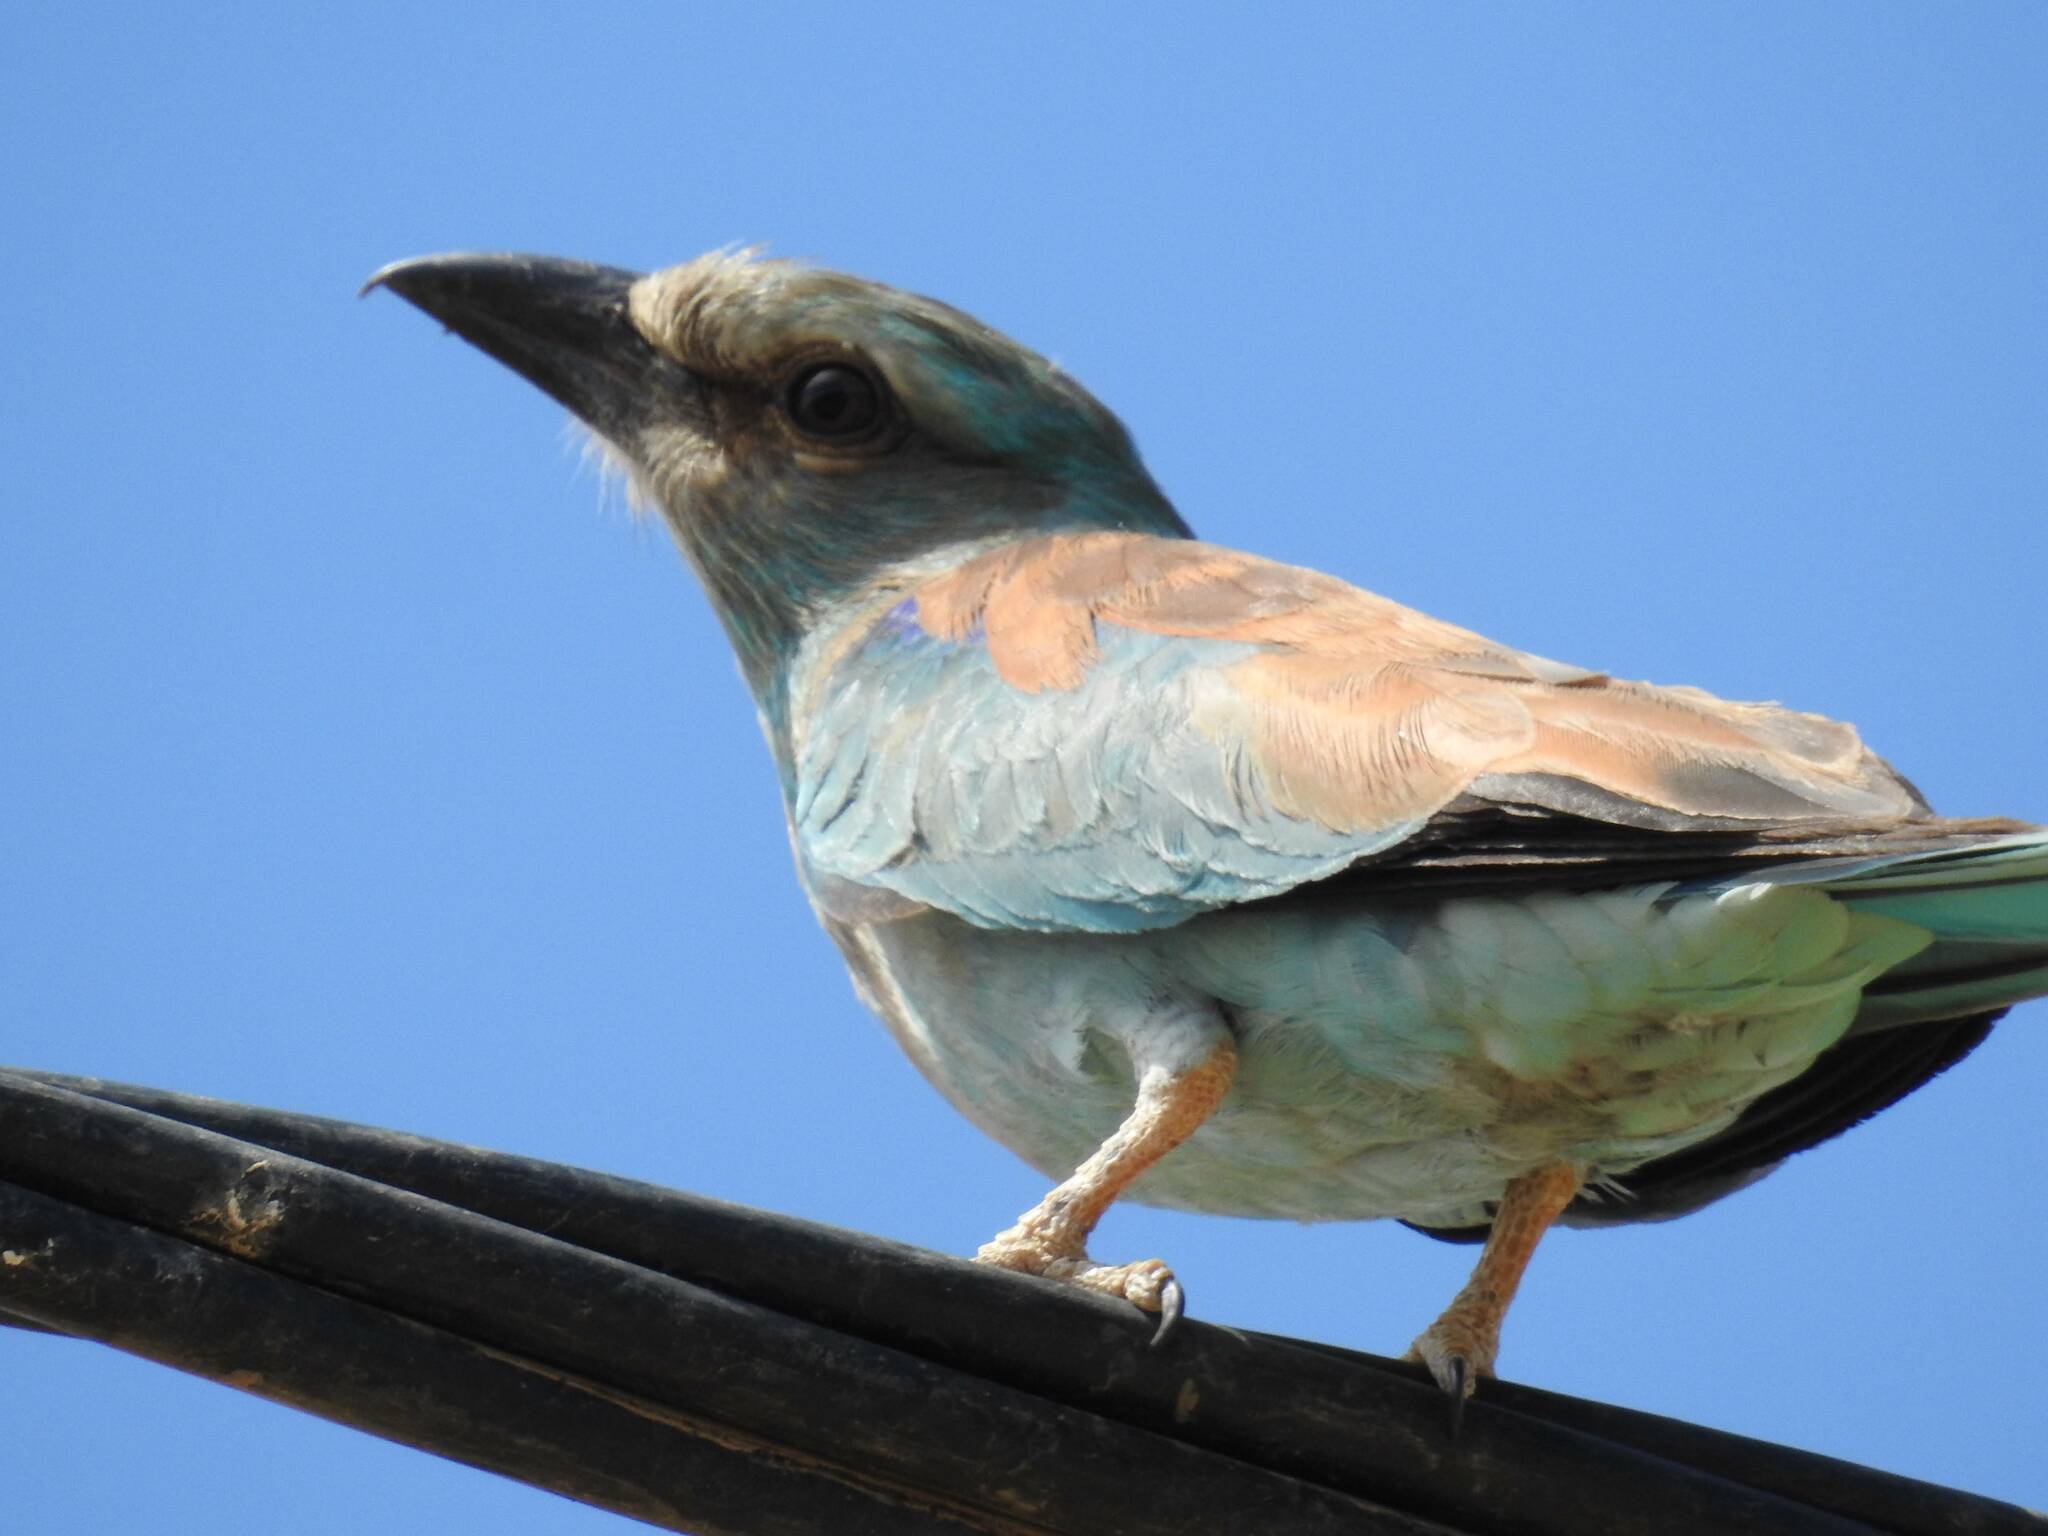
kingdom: Animalia
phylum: Chordata
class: Aves
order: Coraciiformes
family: Coraciidae
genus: Coracias
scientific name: Coracias garrulus
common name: European roller
